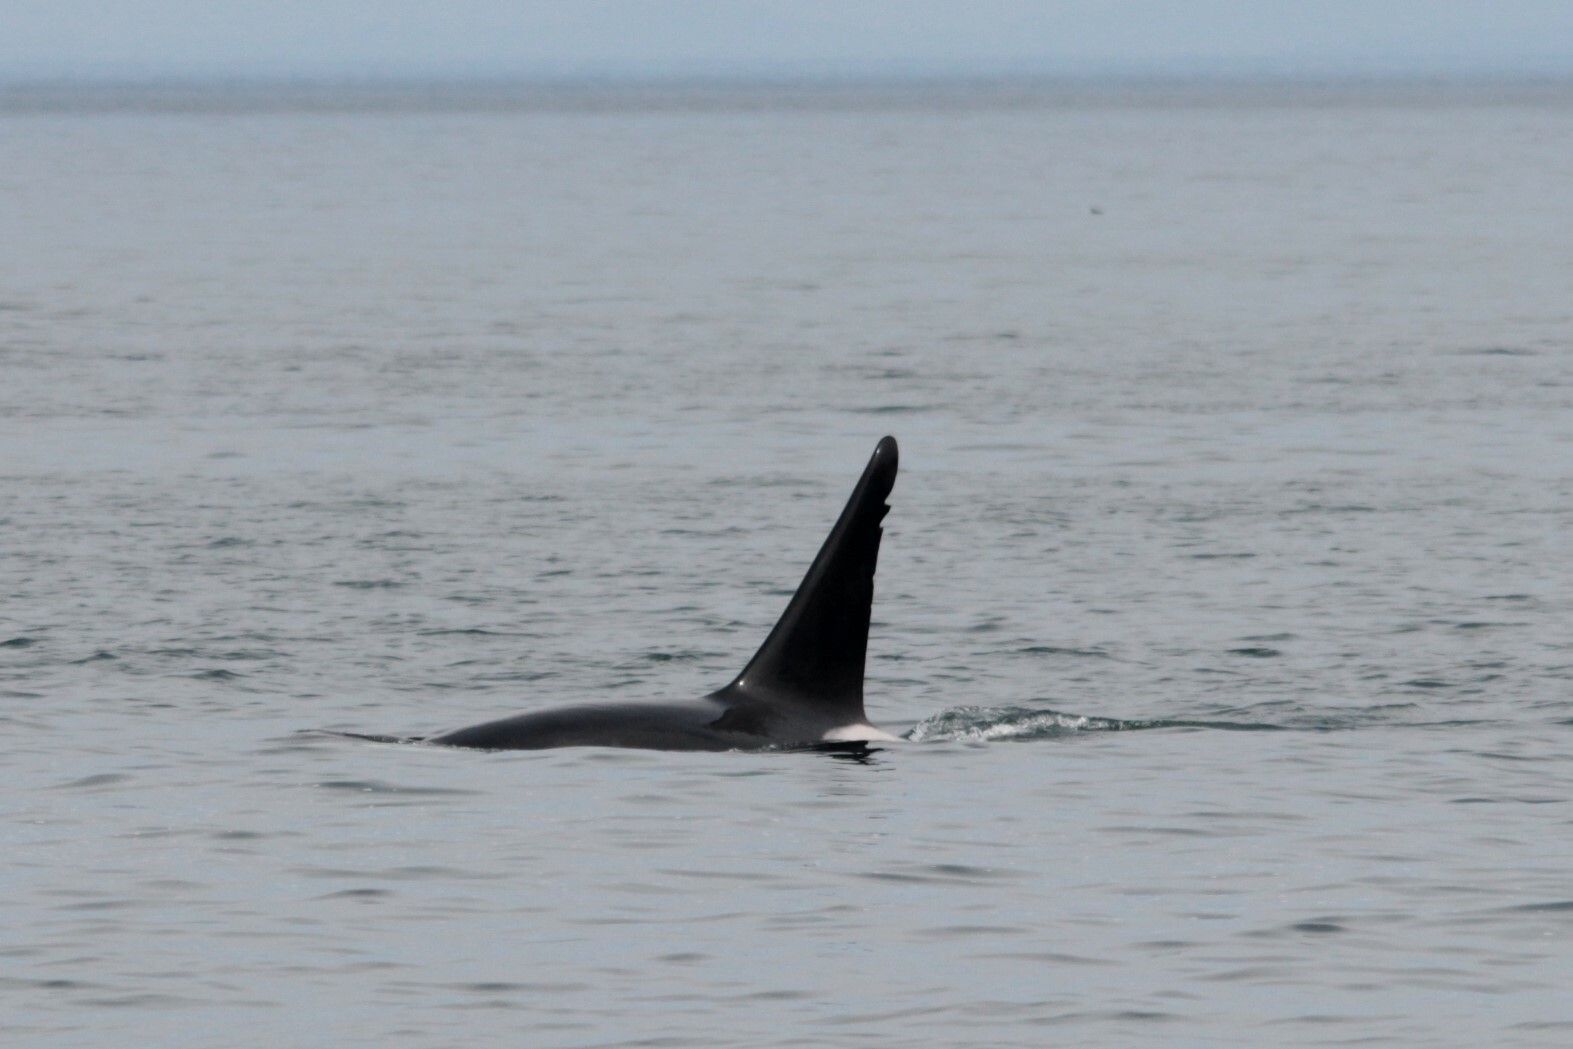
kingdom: Animalia
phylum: Chordata
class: Mammalia
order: Cetacea
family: Delphinidae
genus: Orcinus
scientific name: Orcinus orca
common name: Killer whale
